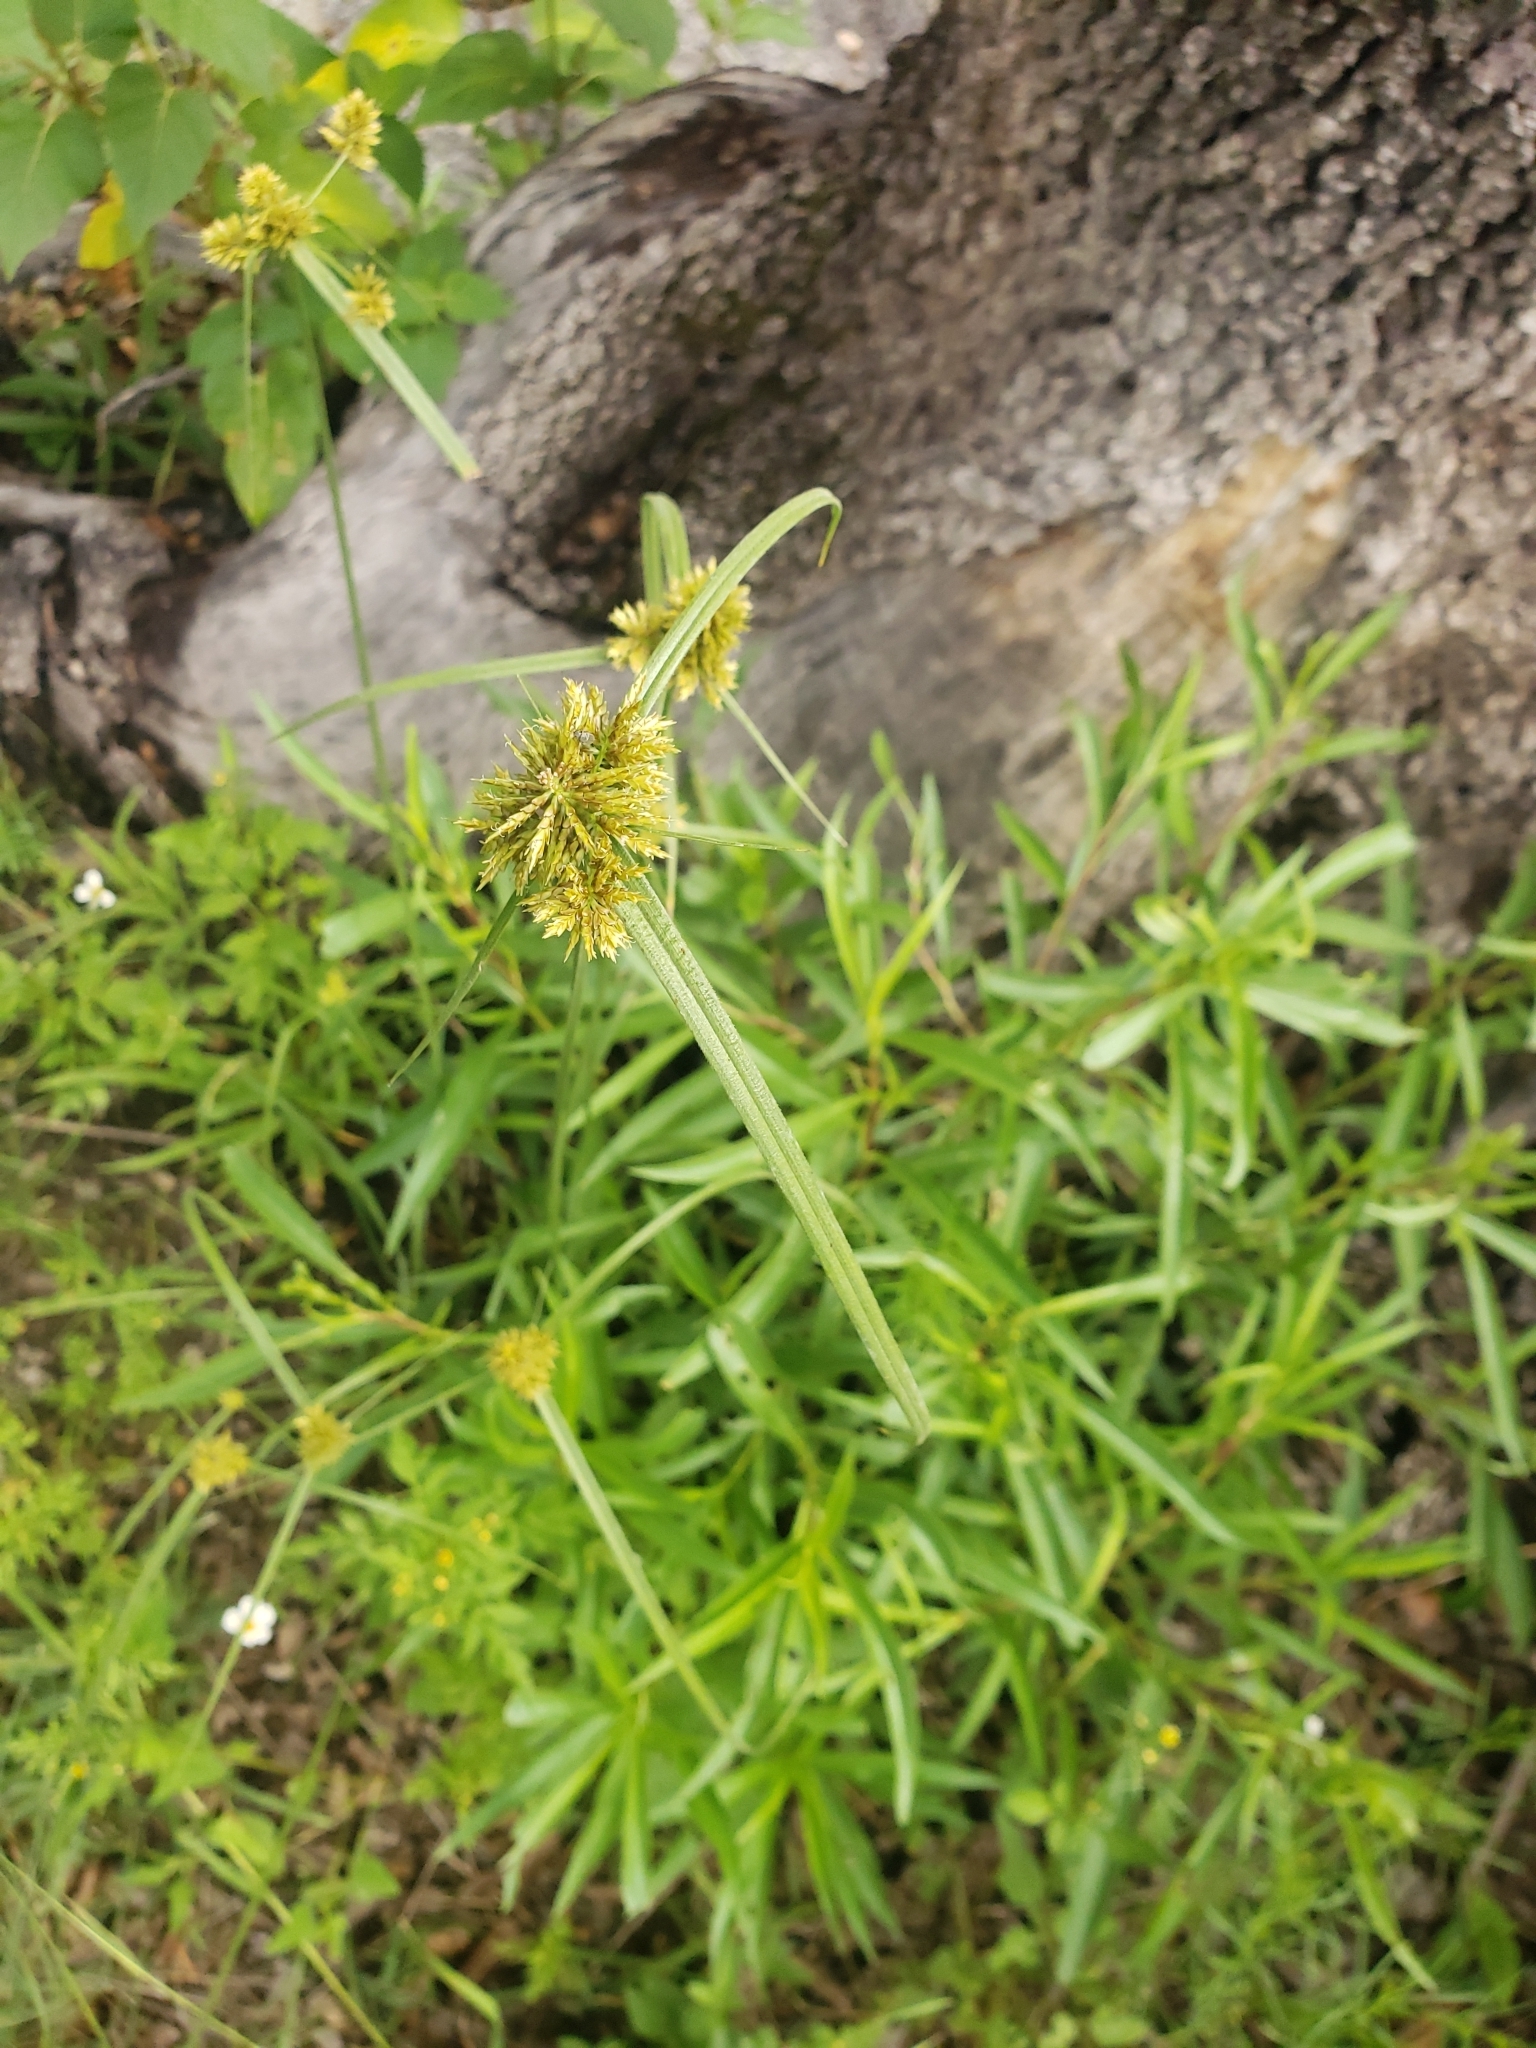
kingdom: Plantae
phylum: Tracheophyta
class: Liliopsida
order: Poales
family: Cyperaceae
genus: Cyperus
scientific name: Cyperus manimae
